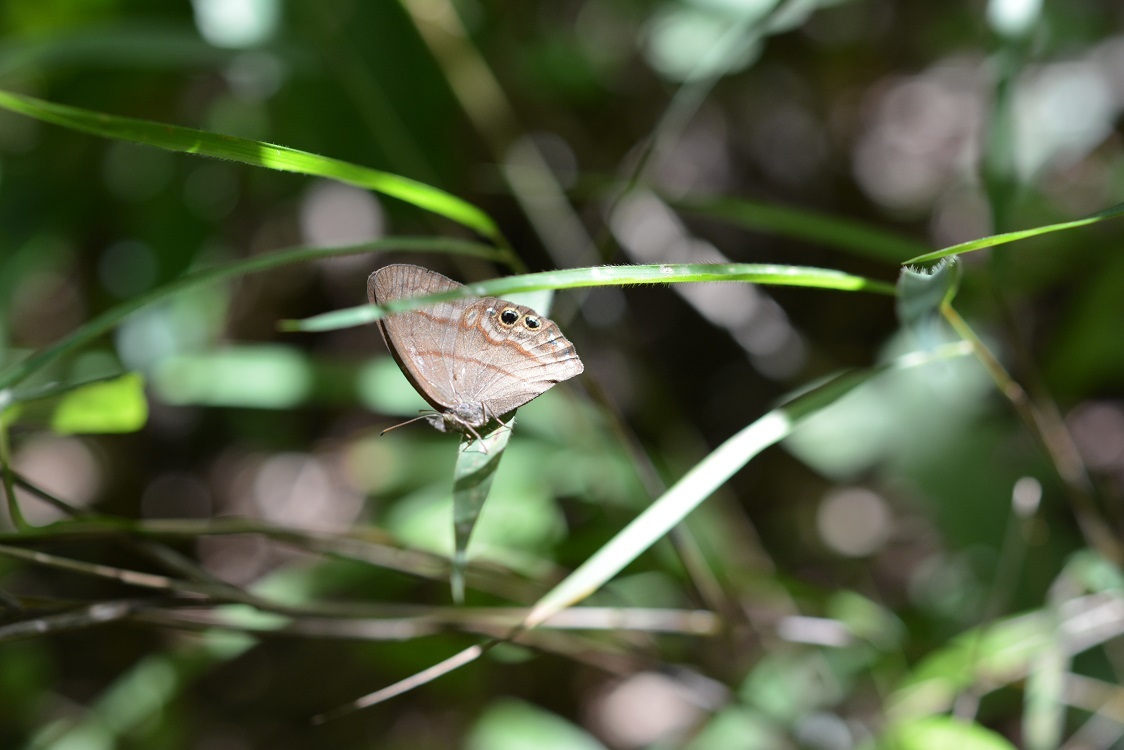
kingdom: Animalia
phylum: Arthropoda
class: Insecta
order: Lepidoptera
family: Nymphalidae
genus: Euptychia
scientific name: Euptychia
